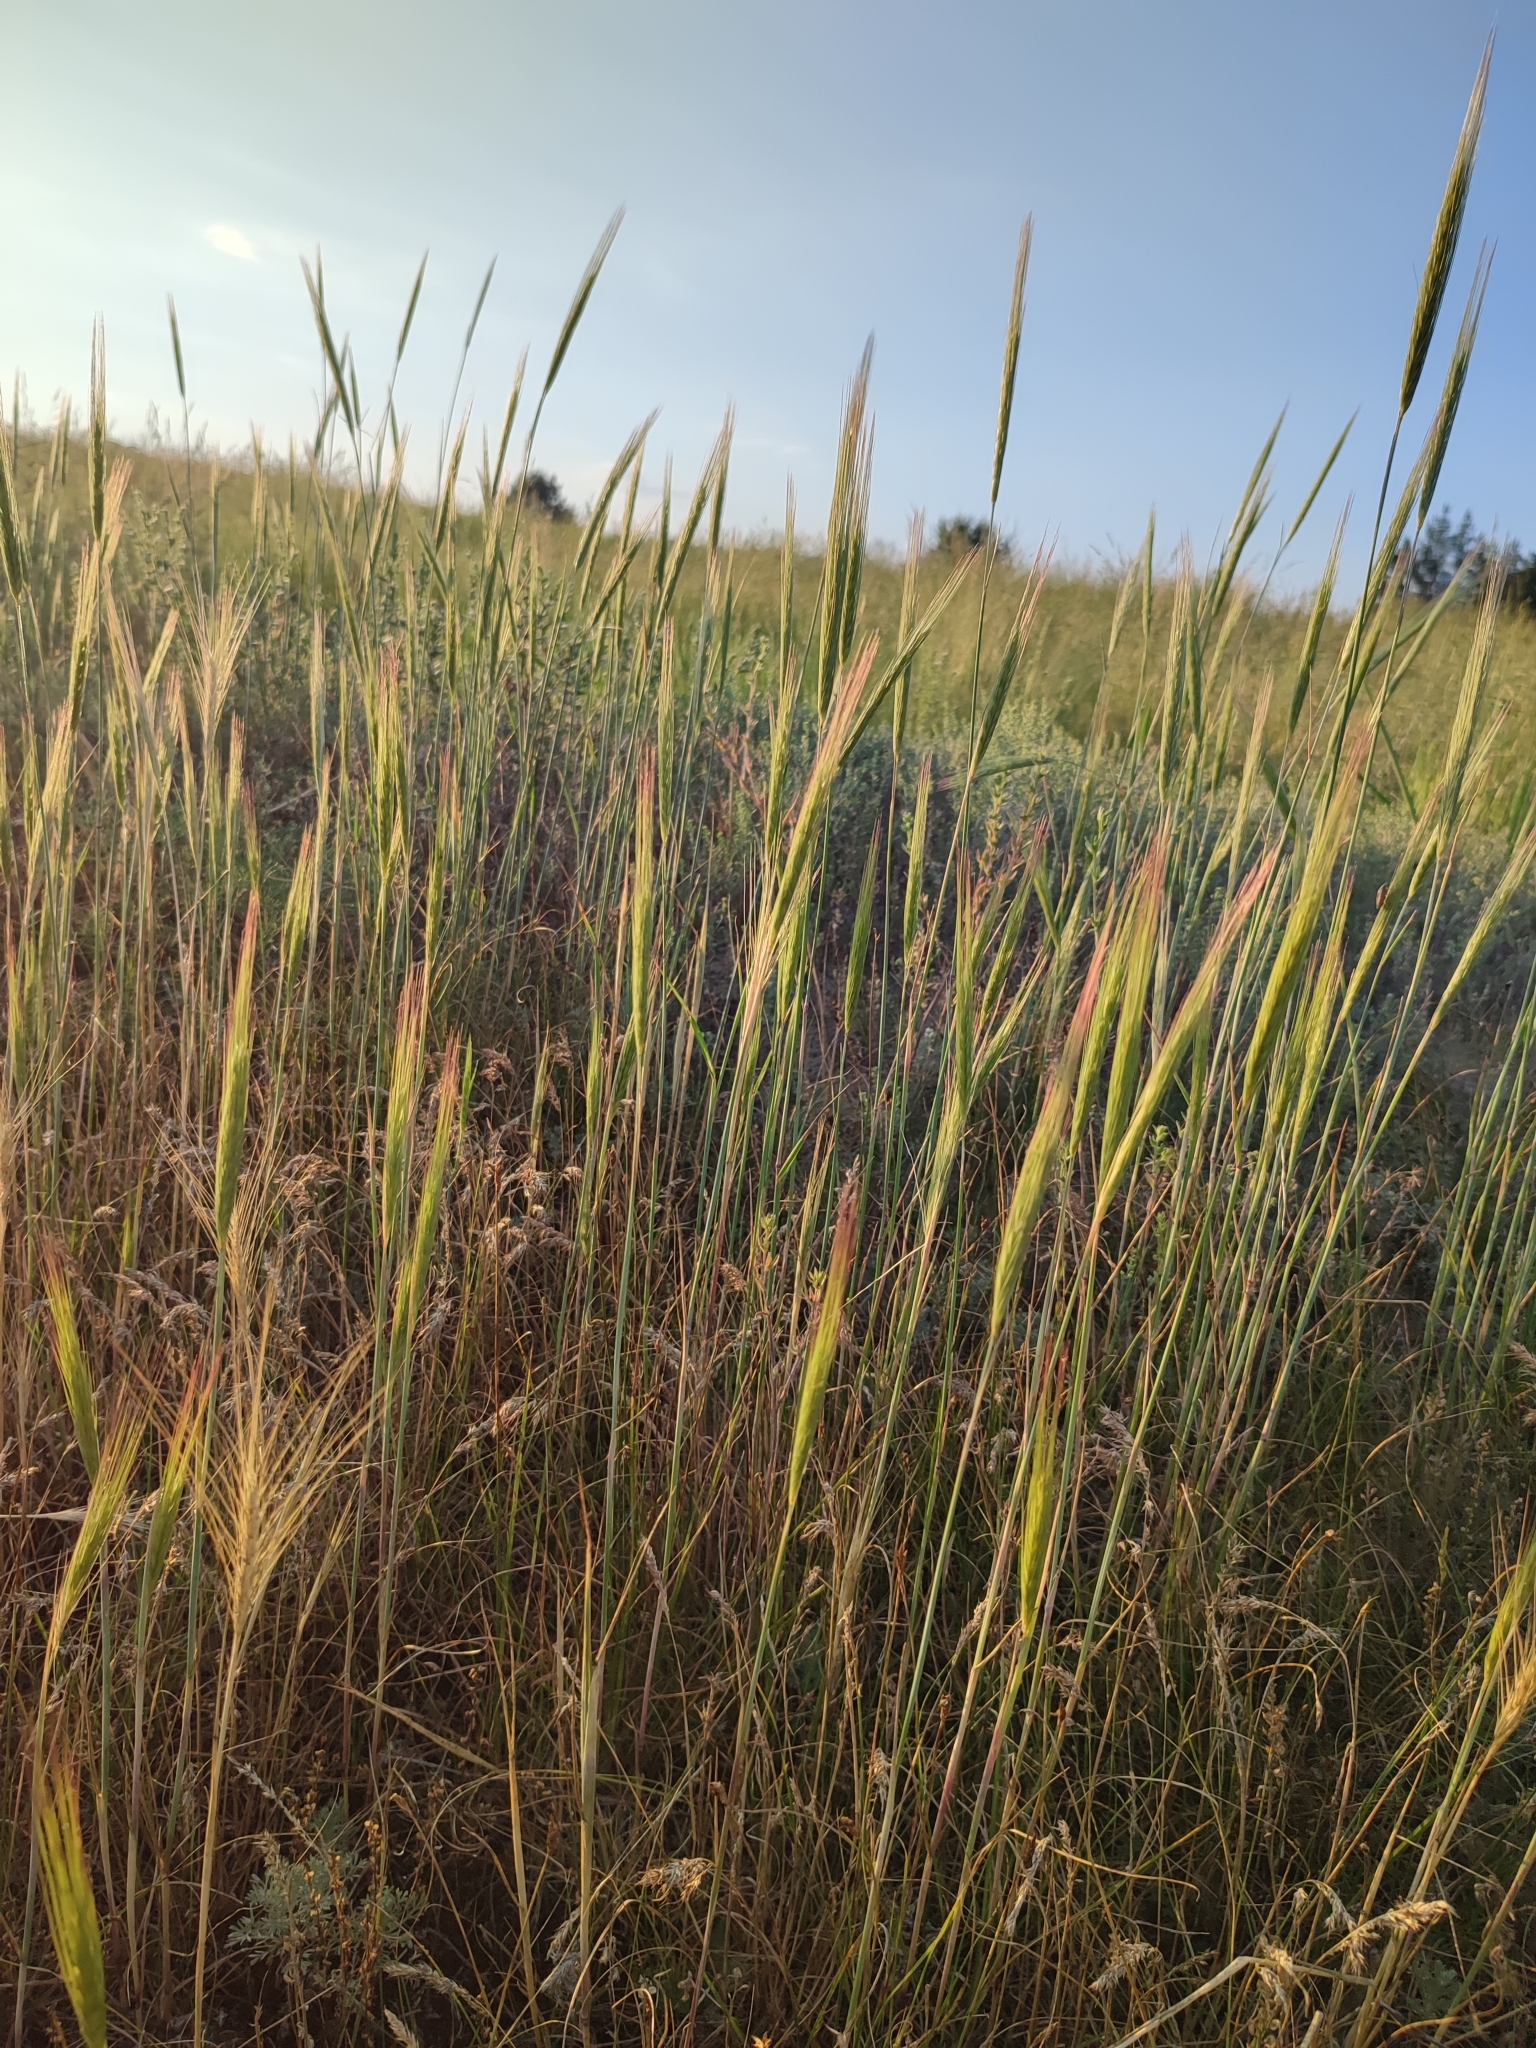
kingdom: Plantae
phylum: Tracheophyta
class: Liliopsida
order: Poales
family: Poaceae
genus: Secale
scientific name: Secale sylvestre
